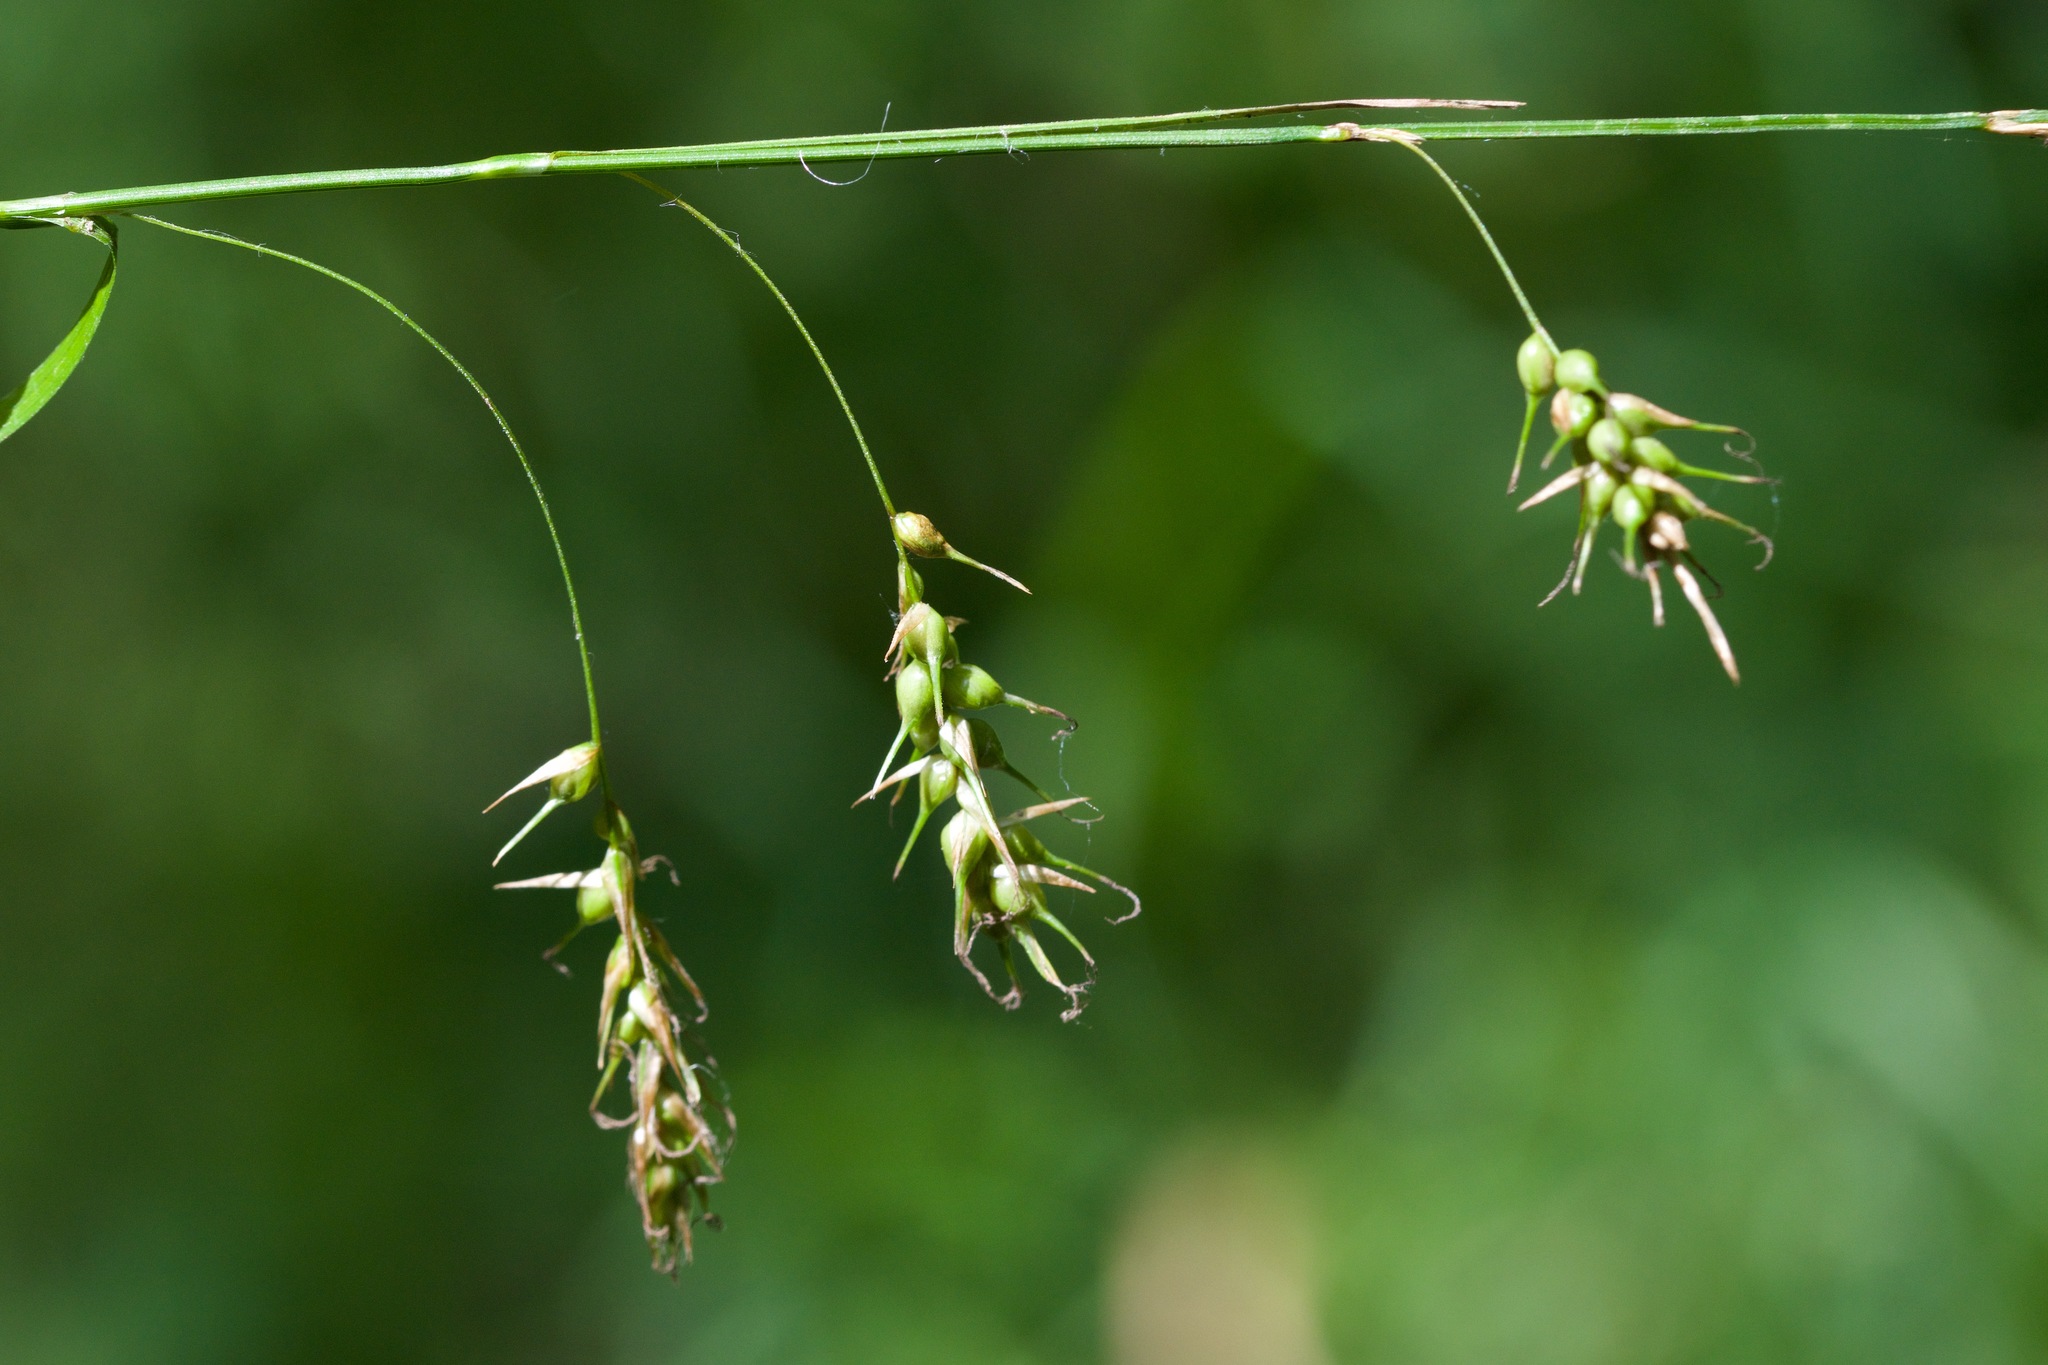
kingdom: Plantae
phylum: Tracheophyta
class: Liliopsida
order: Poales
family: Cyperaceae
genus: Carex
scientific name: Carex sprengelii
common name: Long-beaked sedge
